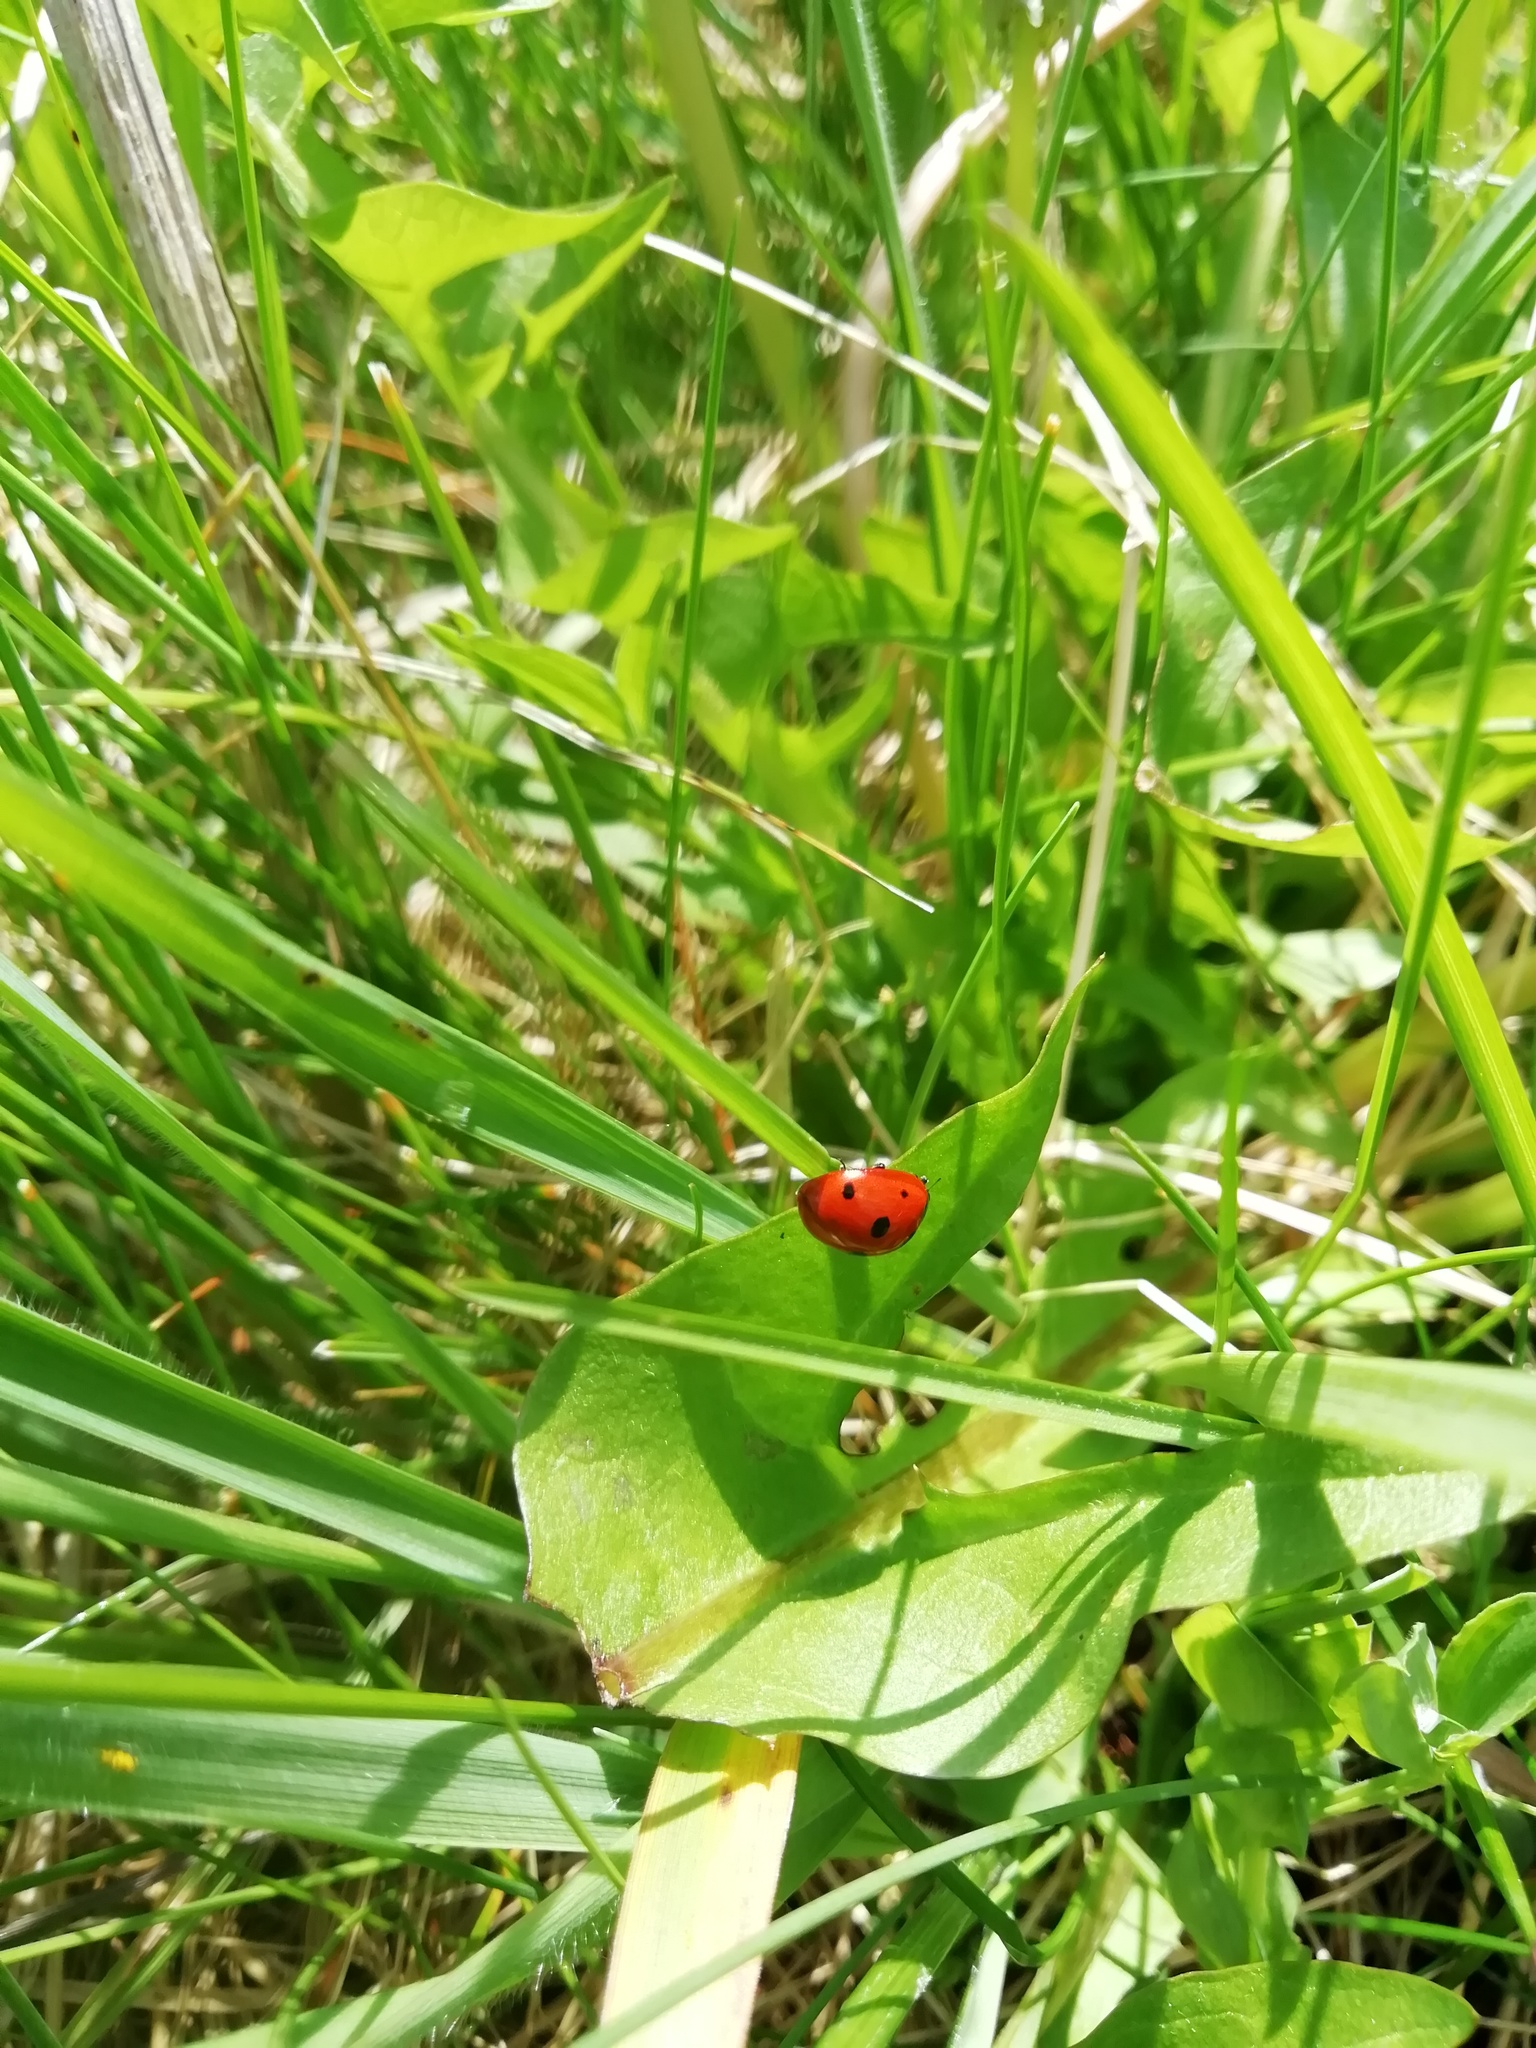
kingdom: Animalia
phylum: Arthropoda
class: Insecta
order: Coleoptera
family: Coccinellidae
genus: Coccinella
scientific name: Coccinella septempunctata
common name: Sevenspotted lady beetle
